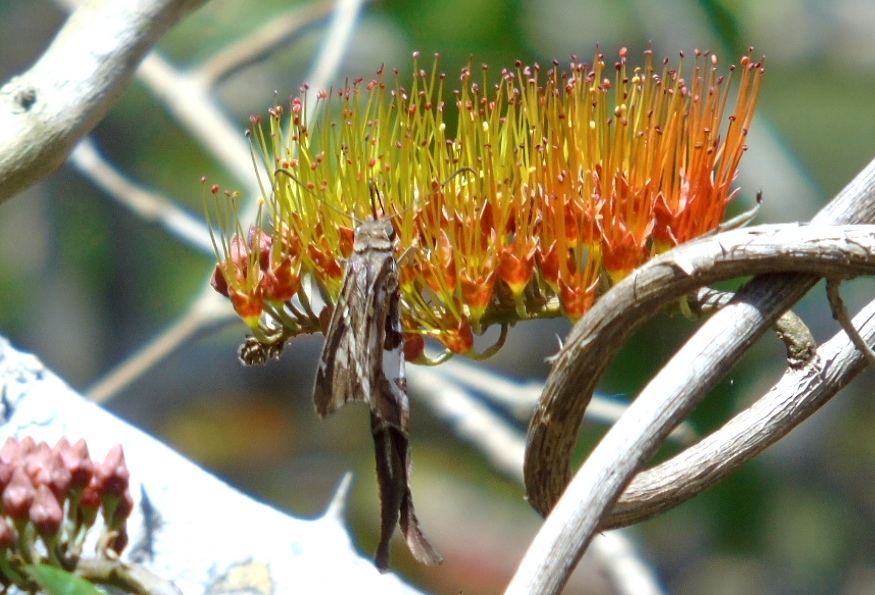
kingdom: Animalia
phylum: Arthropoda
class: Insecta
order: Lepidoptera
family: Hesperiidae
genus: Chioides
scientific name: Chioides zilpa
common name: Zilpa longtail
